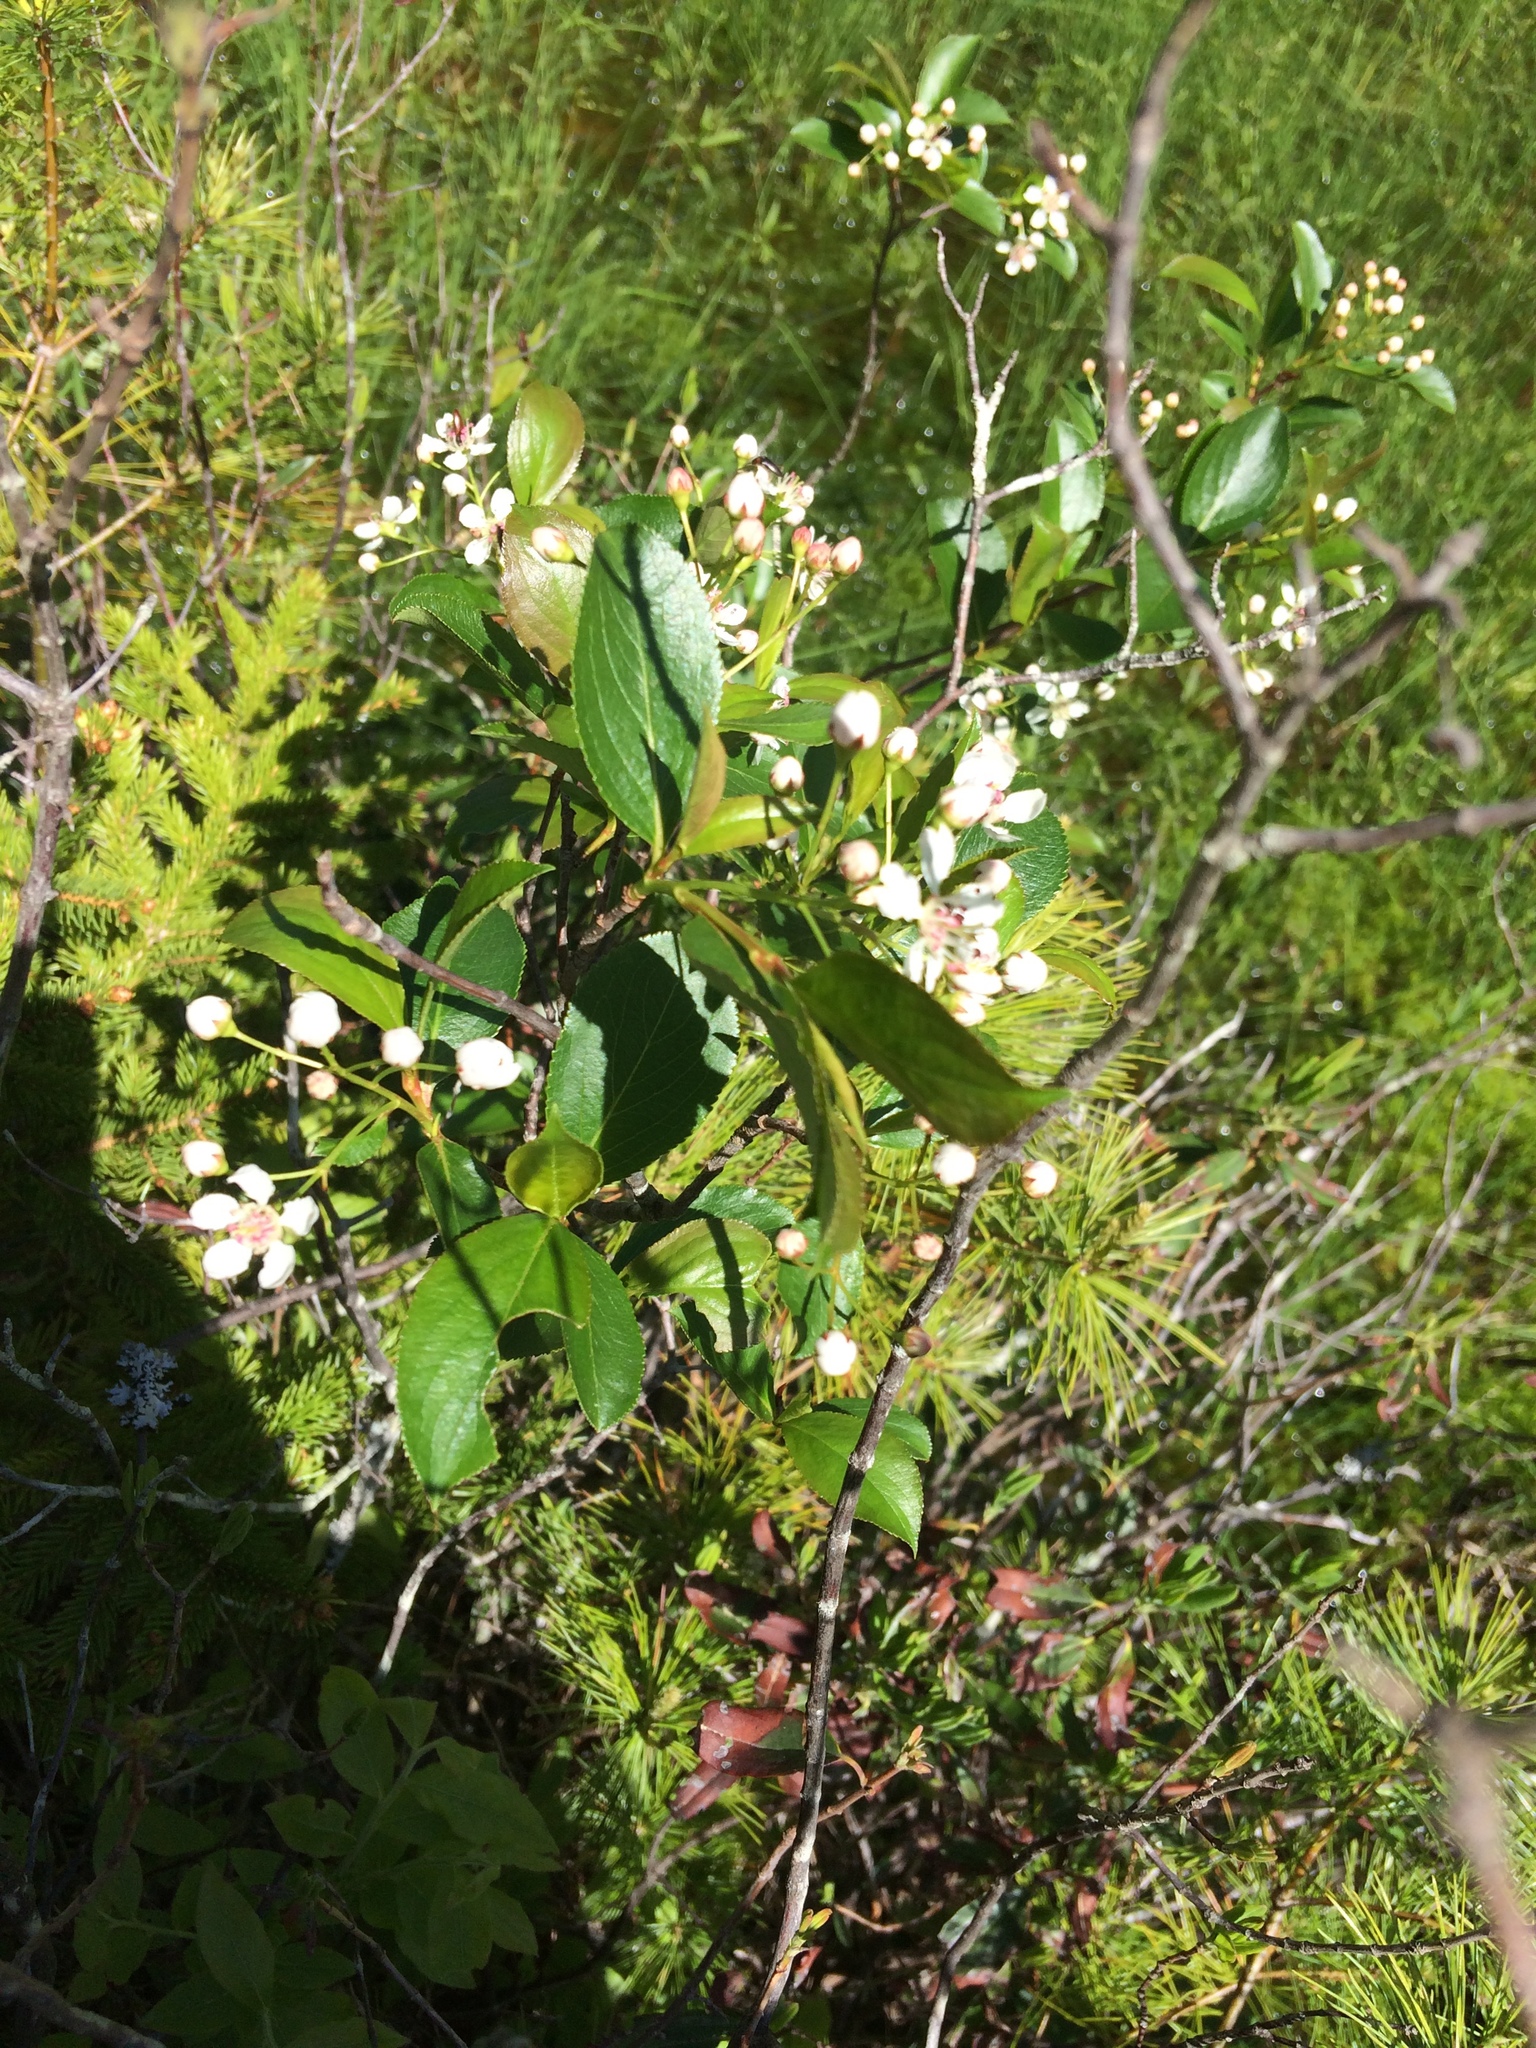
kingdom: Plantae
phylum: Tracheophyta
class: Magnoliopsida
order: Rosales
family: Rosaceae
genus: Aronia
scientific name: Aronia melanocarpa
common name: Black chokeberry
